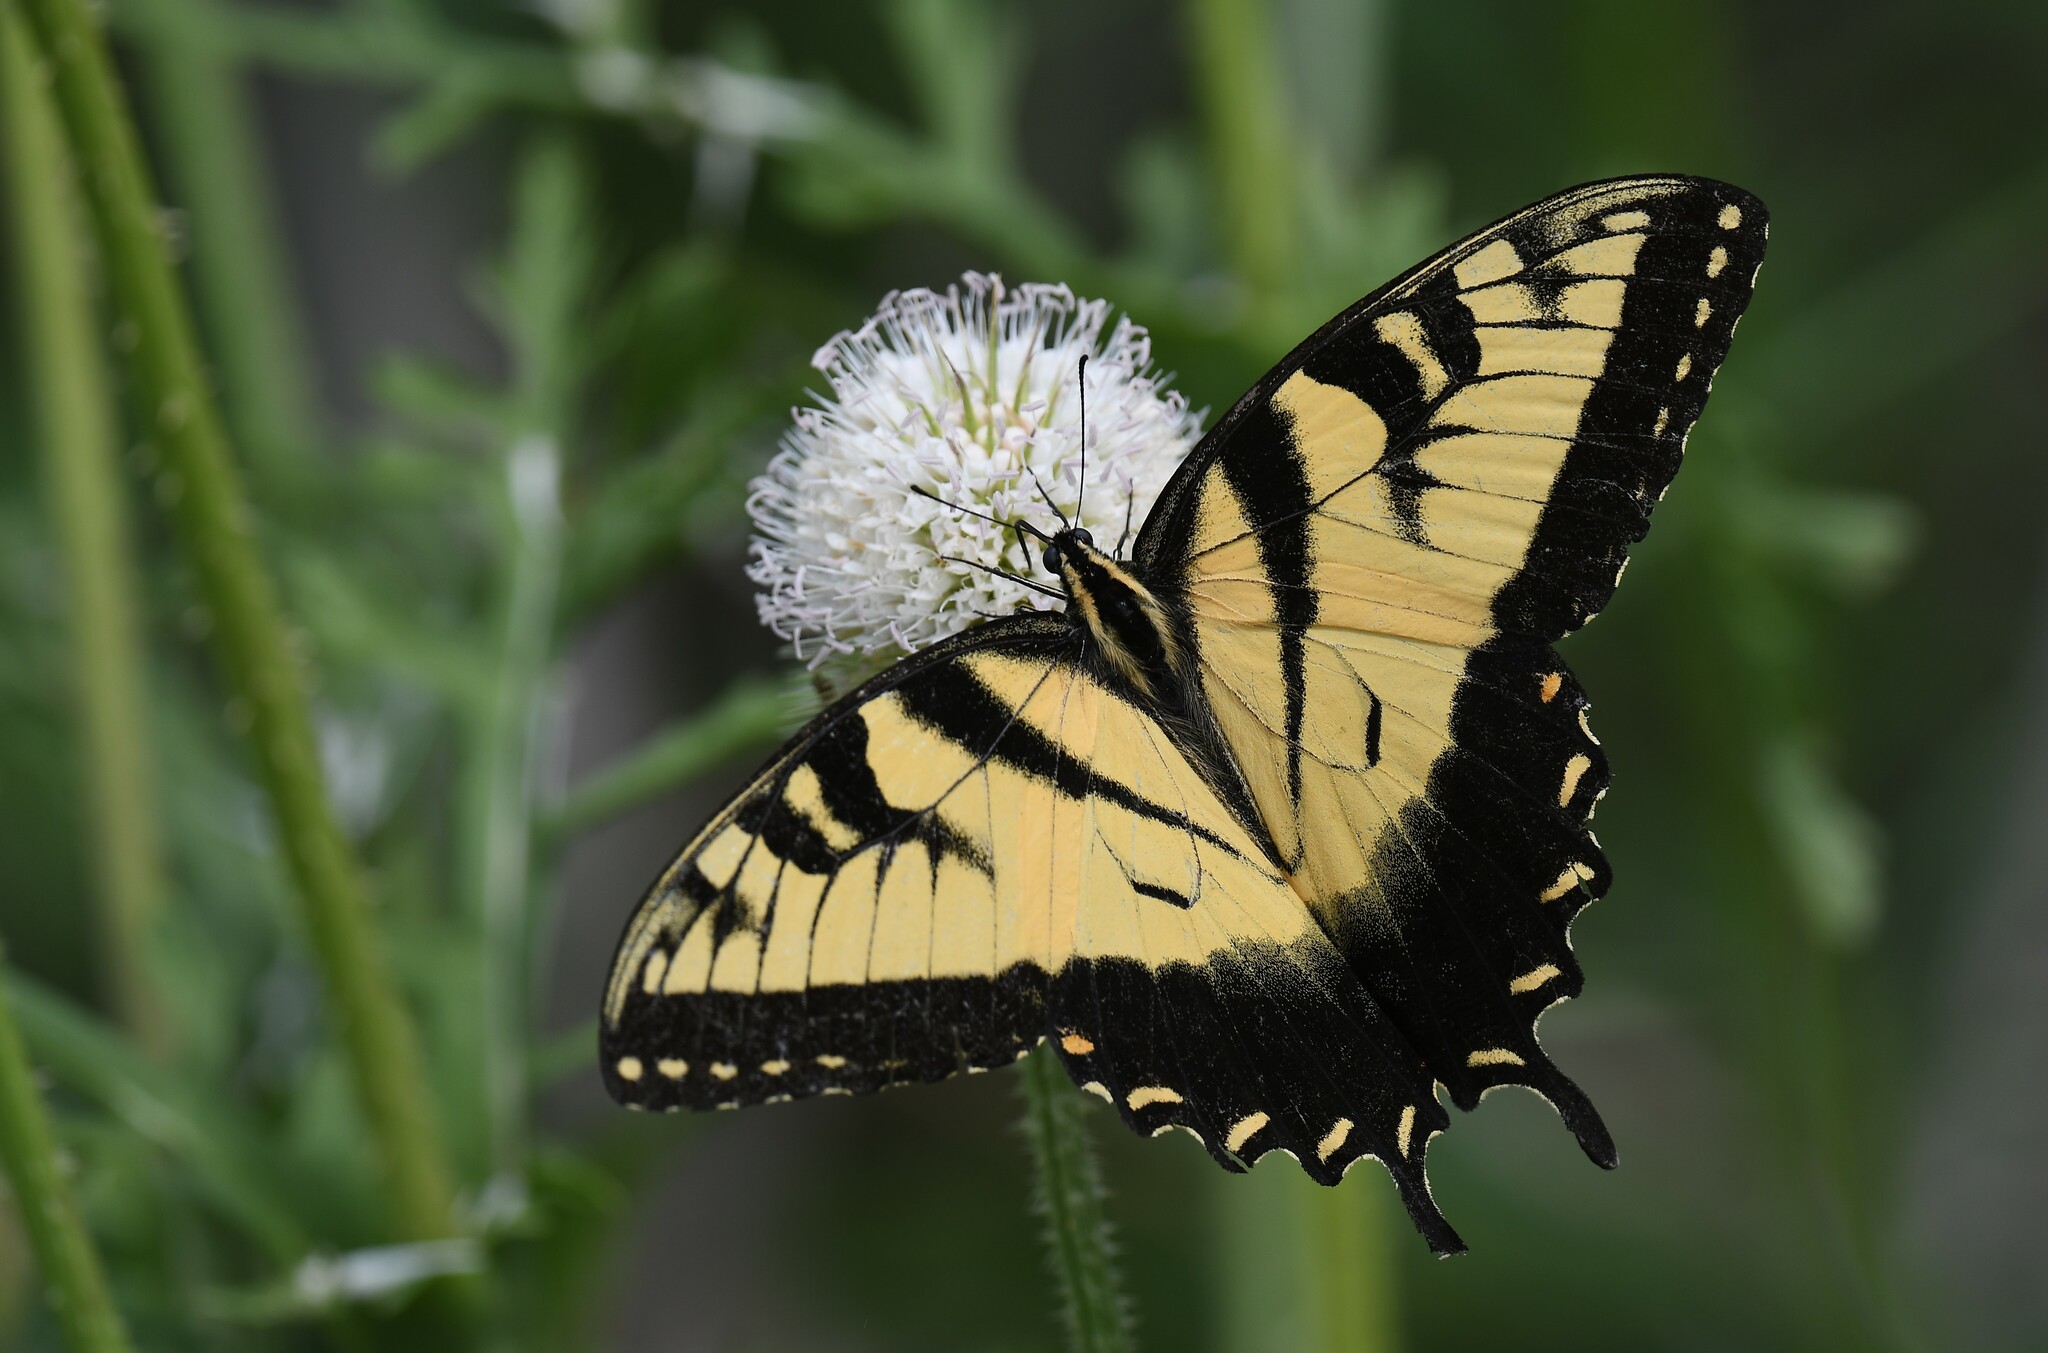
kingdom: Animalia
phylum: Arthropoda
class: Insecta
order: Lepidoptera
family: Papilionidae
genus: Papilio
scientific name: Papilio glaucus
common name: Tiger swallowtail
